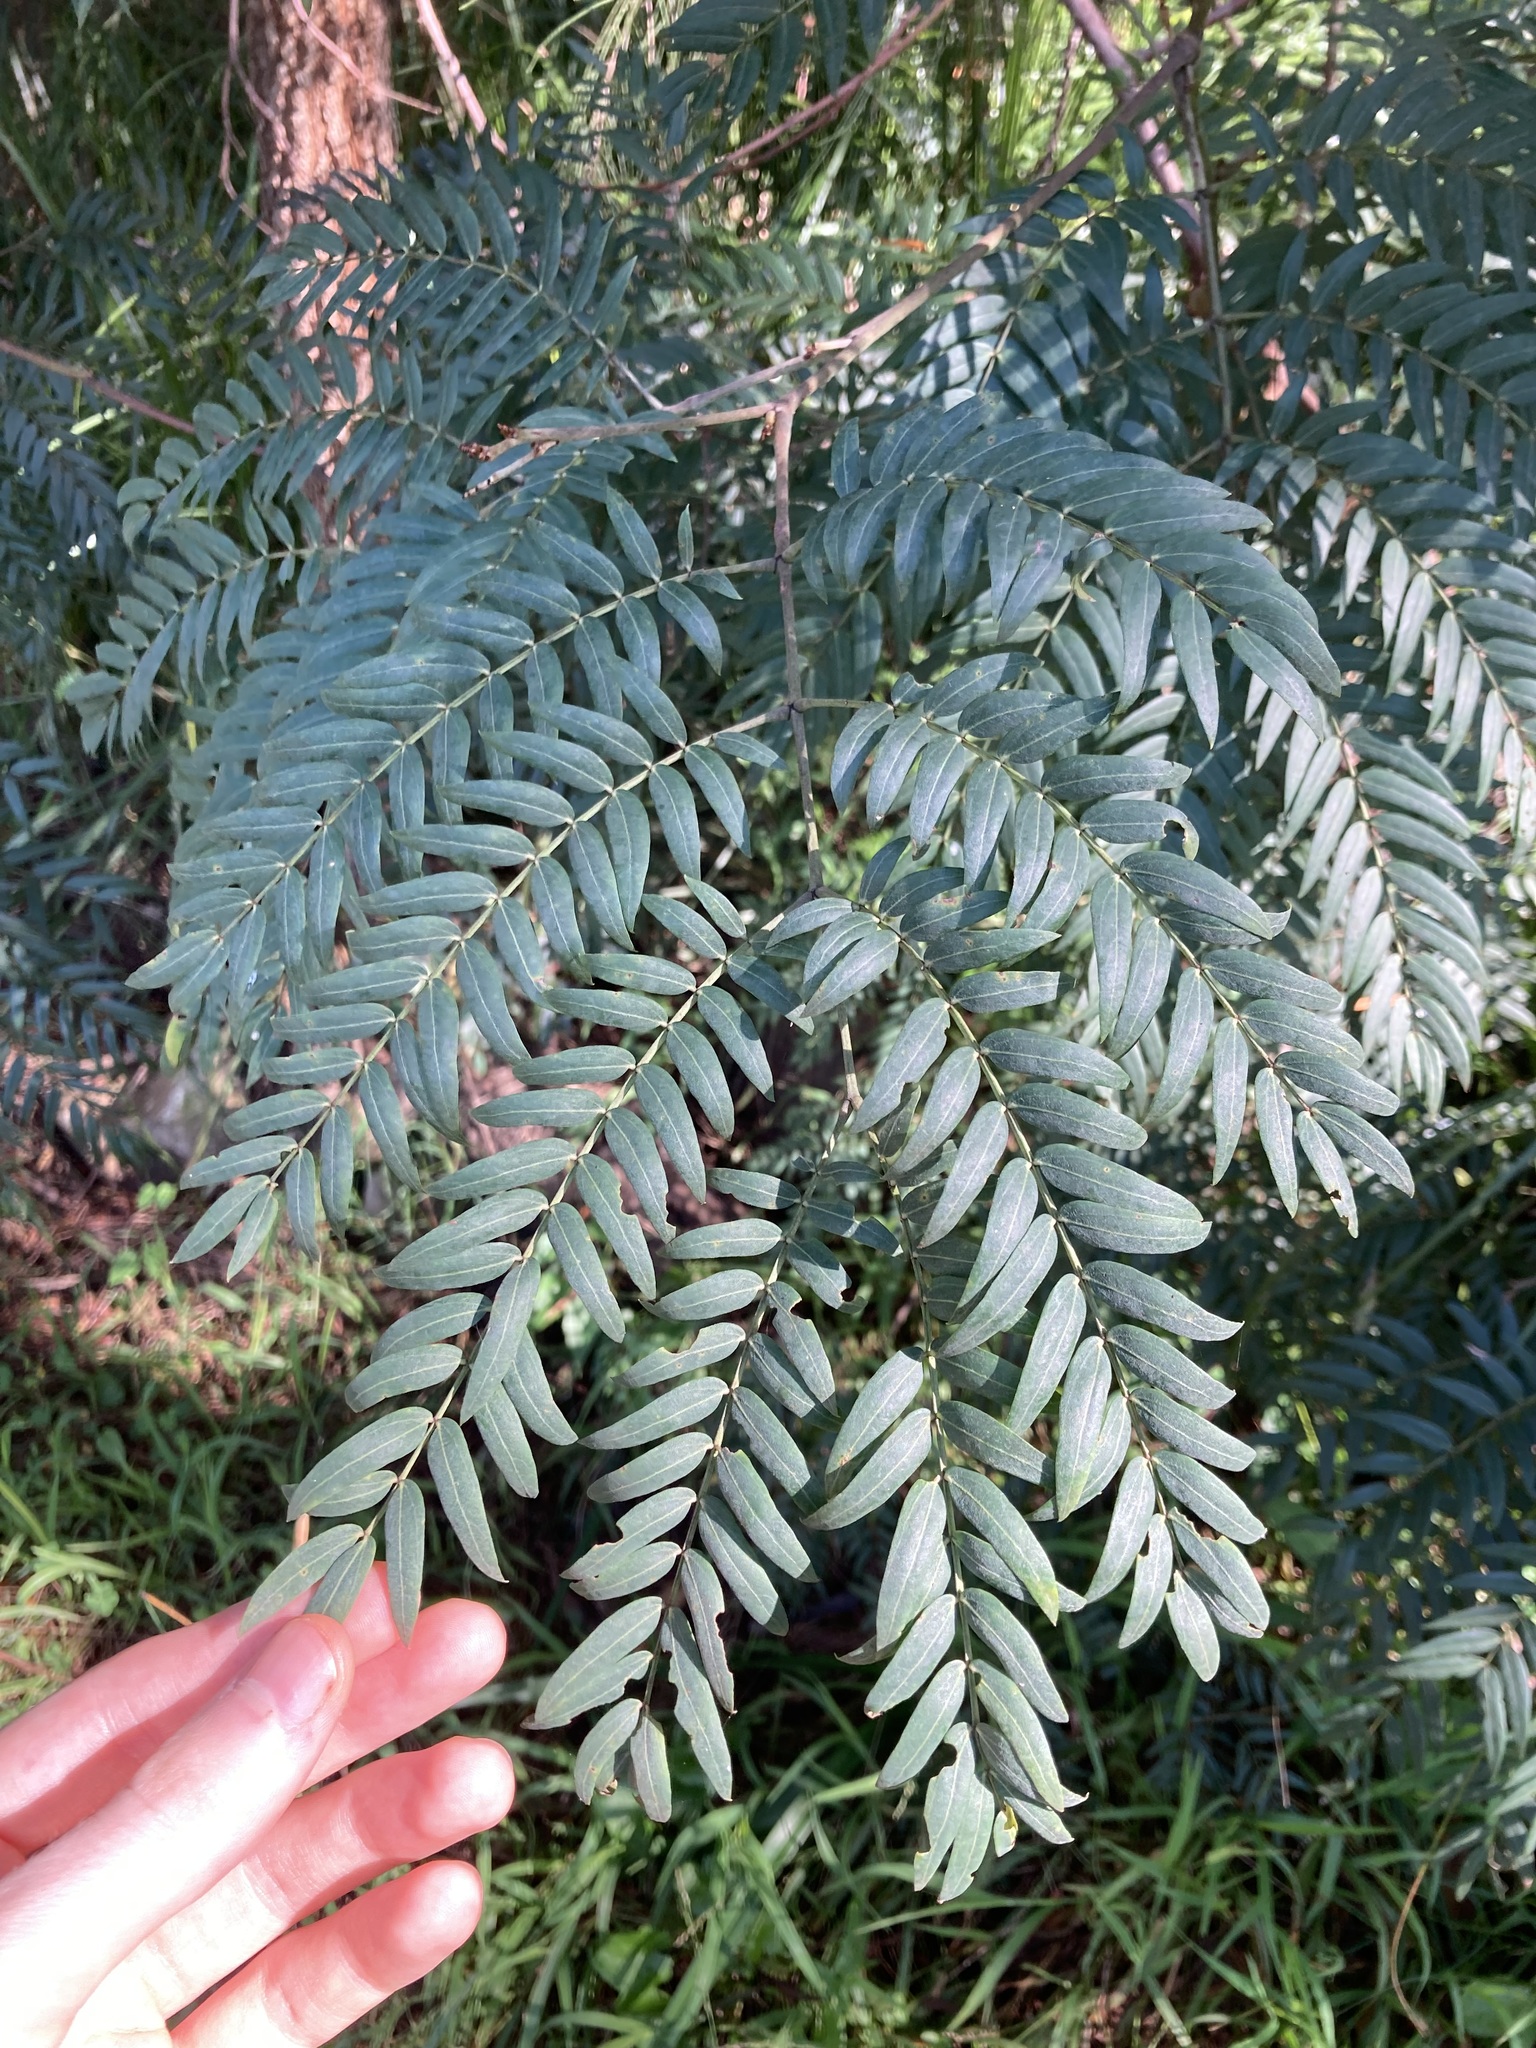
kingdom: Plantae
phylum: Tracheophyta
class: Magnoliopsida
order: Fabales
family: Fabaceae
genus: Acacia
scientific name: Acacia elata
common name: Cedar wattle
